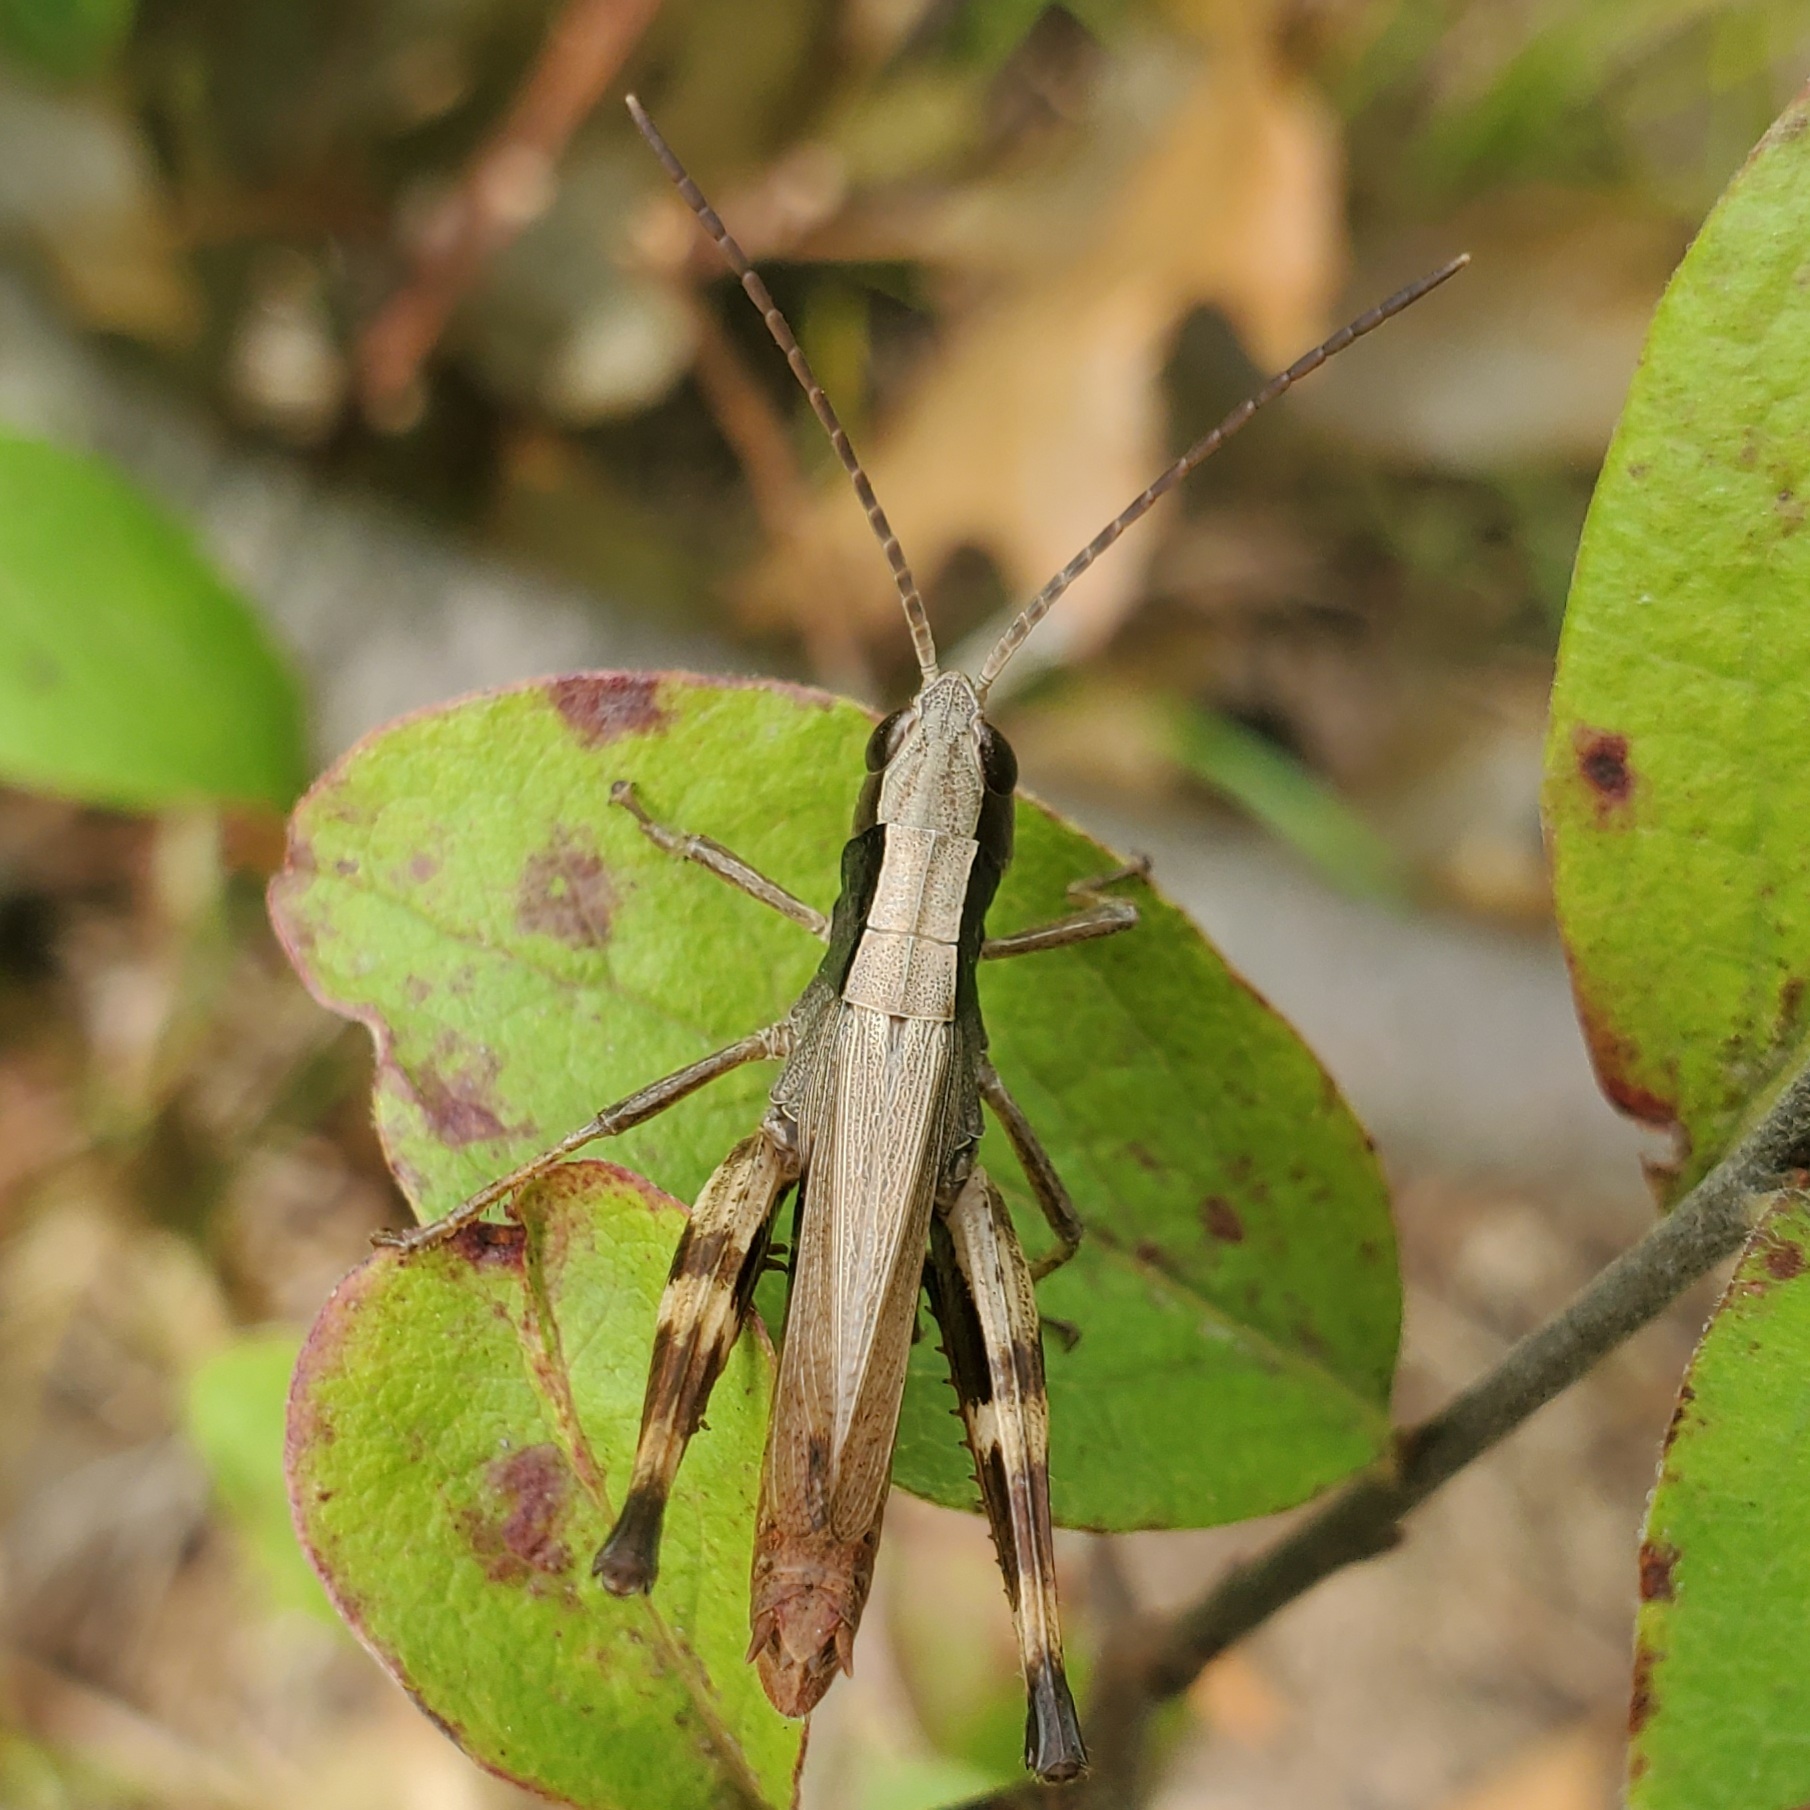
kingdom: Animalia
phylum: Arthropoda
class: Insecta
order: Orthoptera
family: Acrididae
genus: Chloealtis
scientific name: Chloealtis conspersa
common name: Sprinkled broad-winged grasshopper
